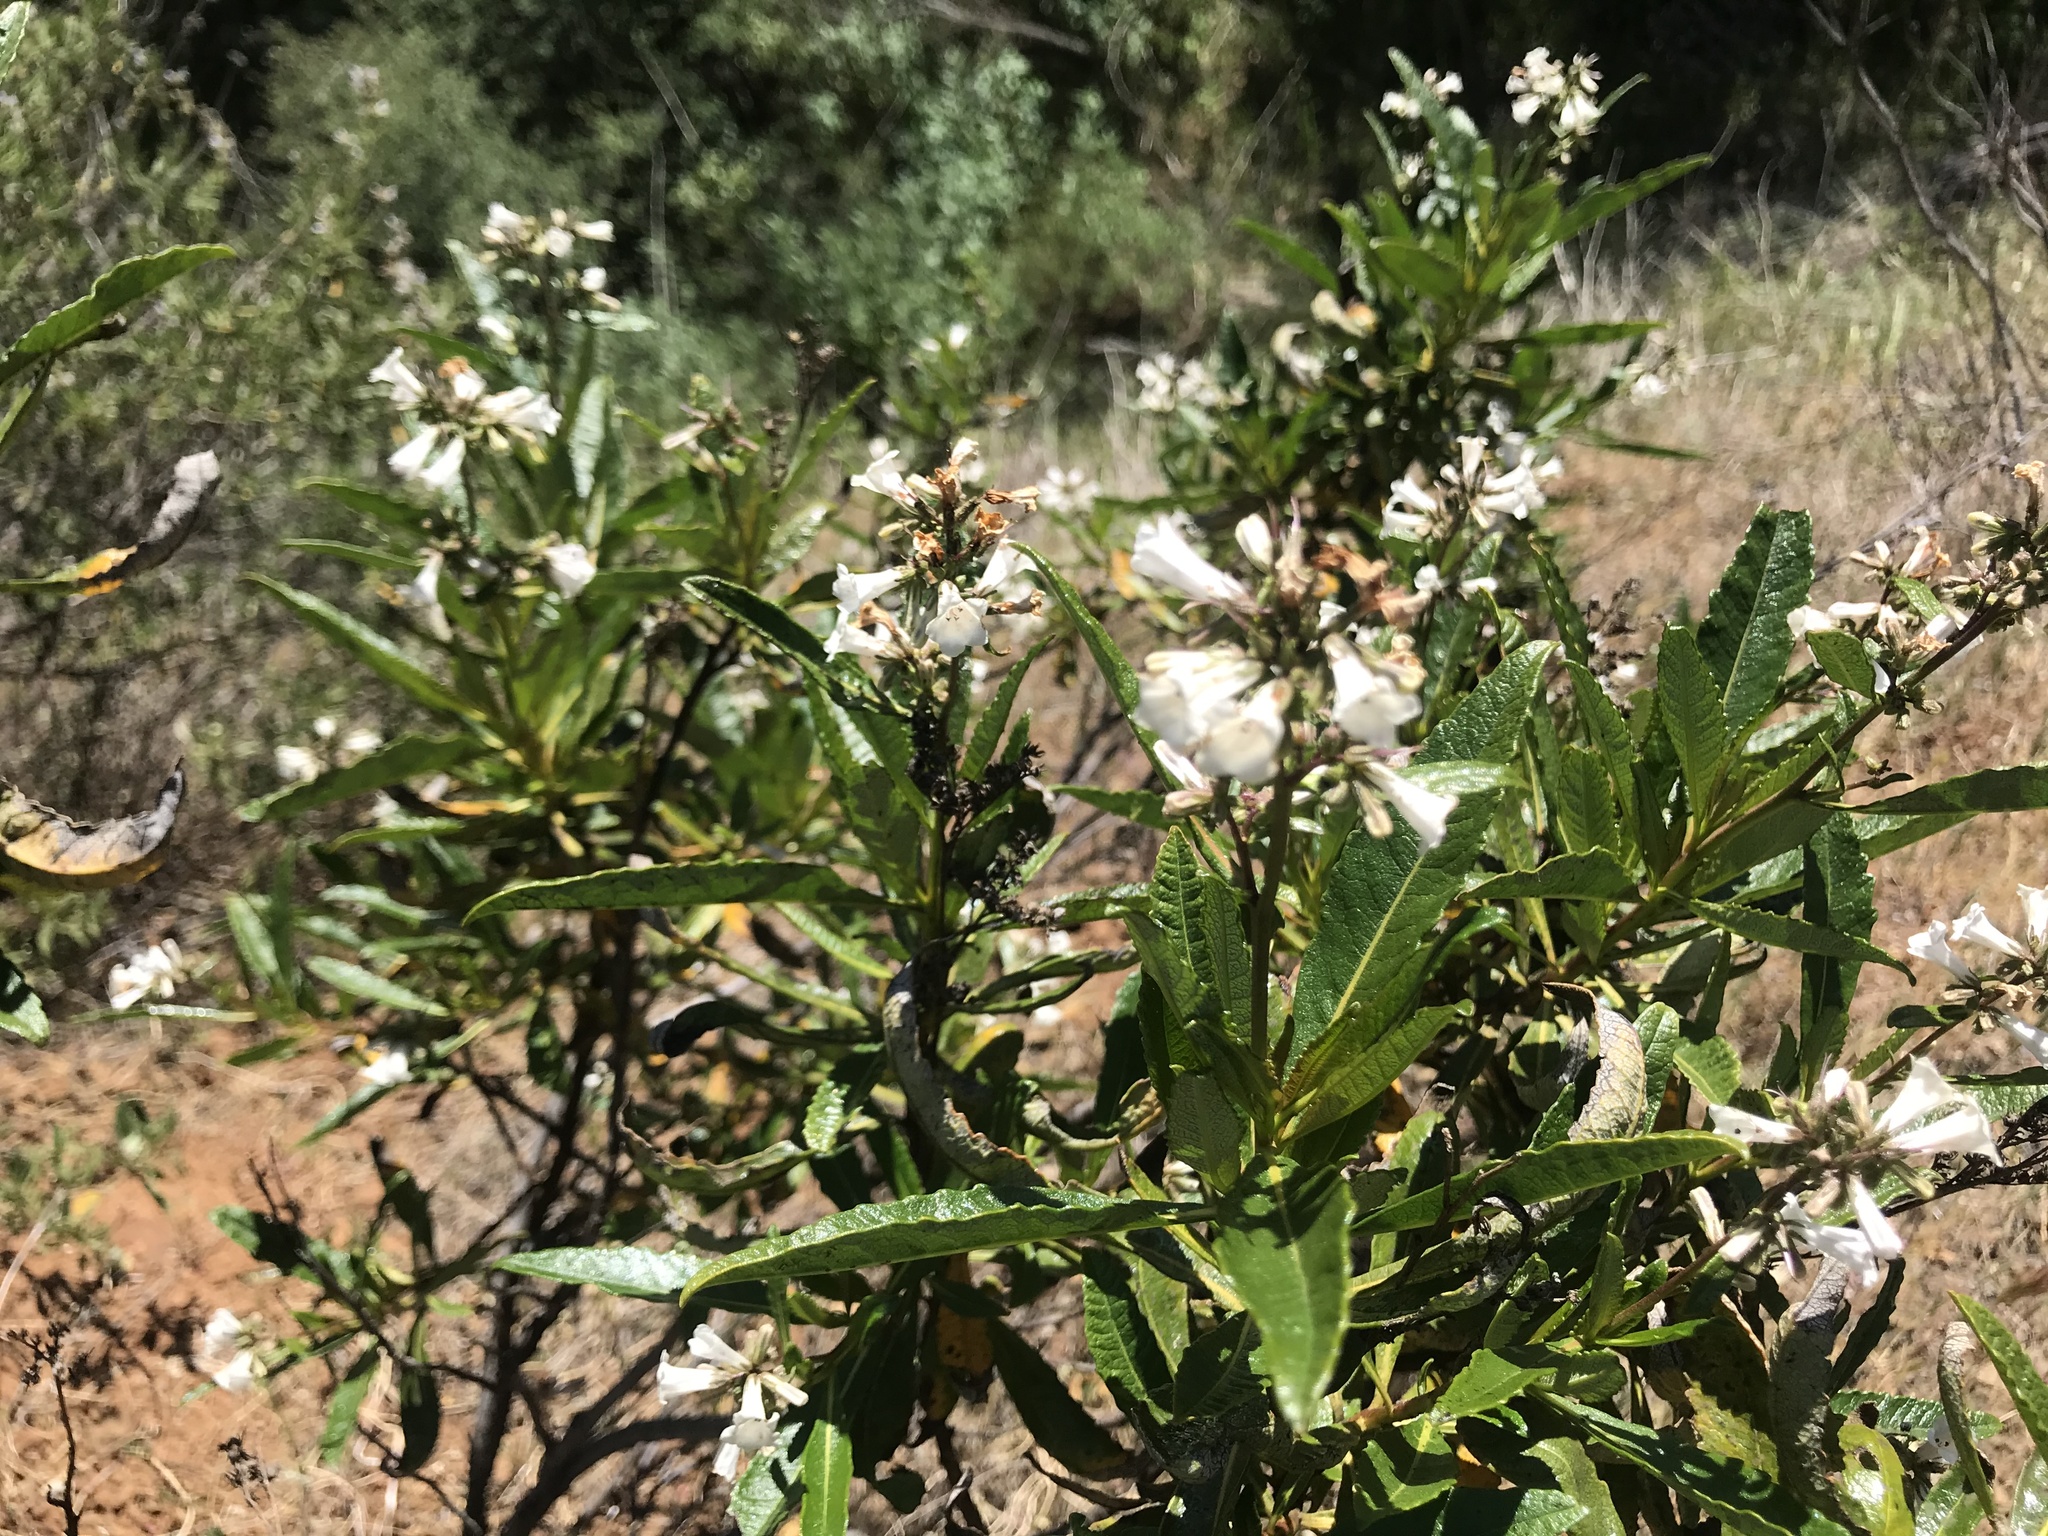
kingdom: Plantae
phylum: Tracheophyta
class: Magnoliopsida
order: Boraginales
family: Namaceae
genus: Eriodictyon
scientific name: Eriodictyon californicum
